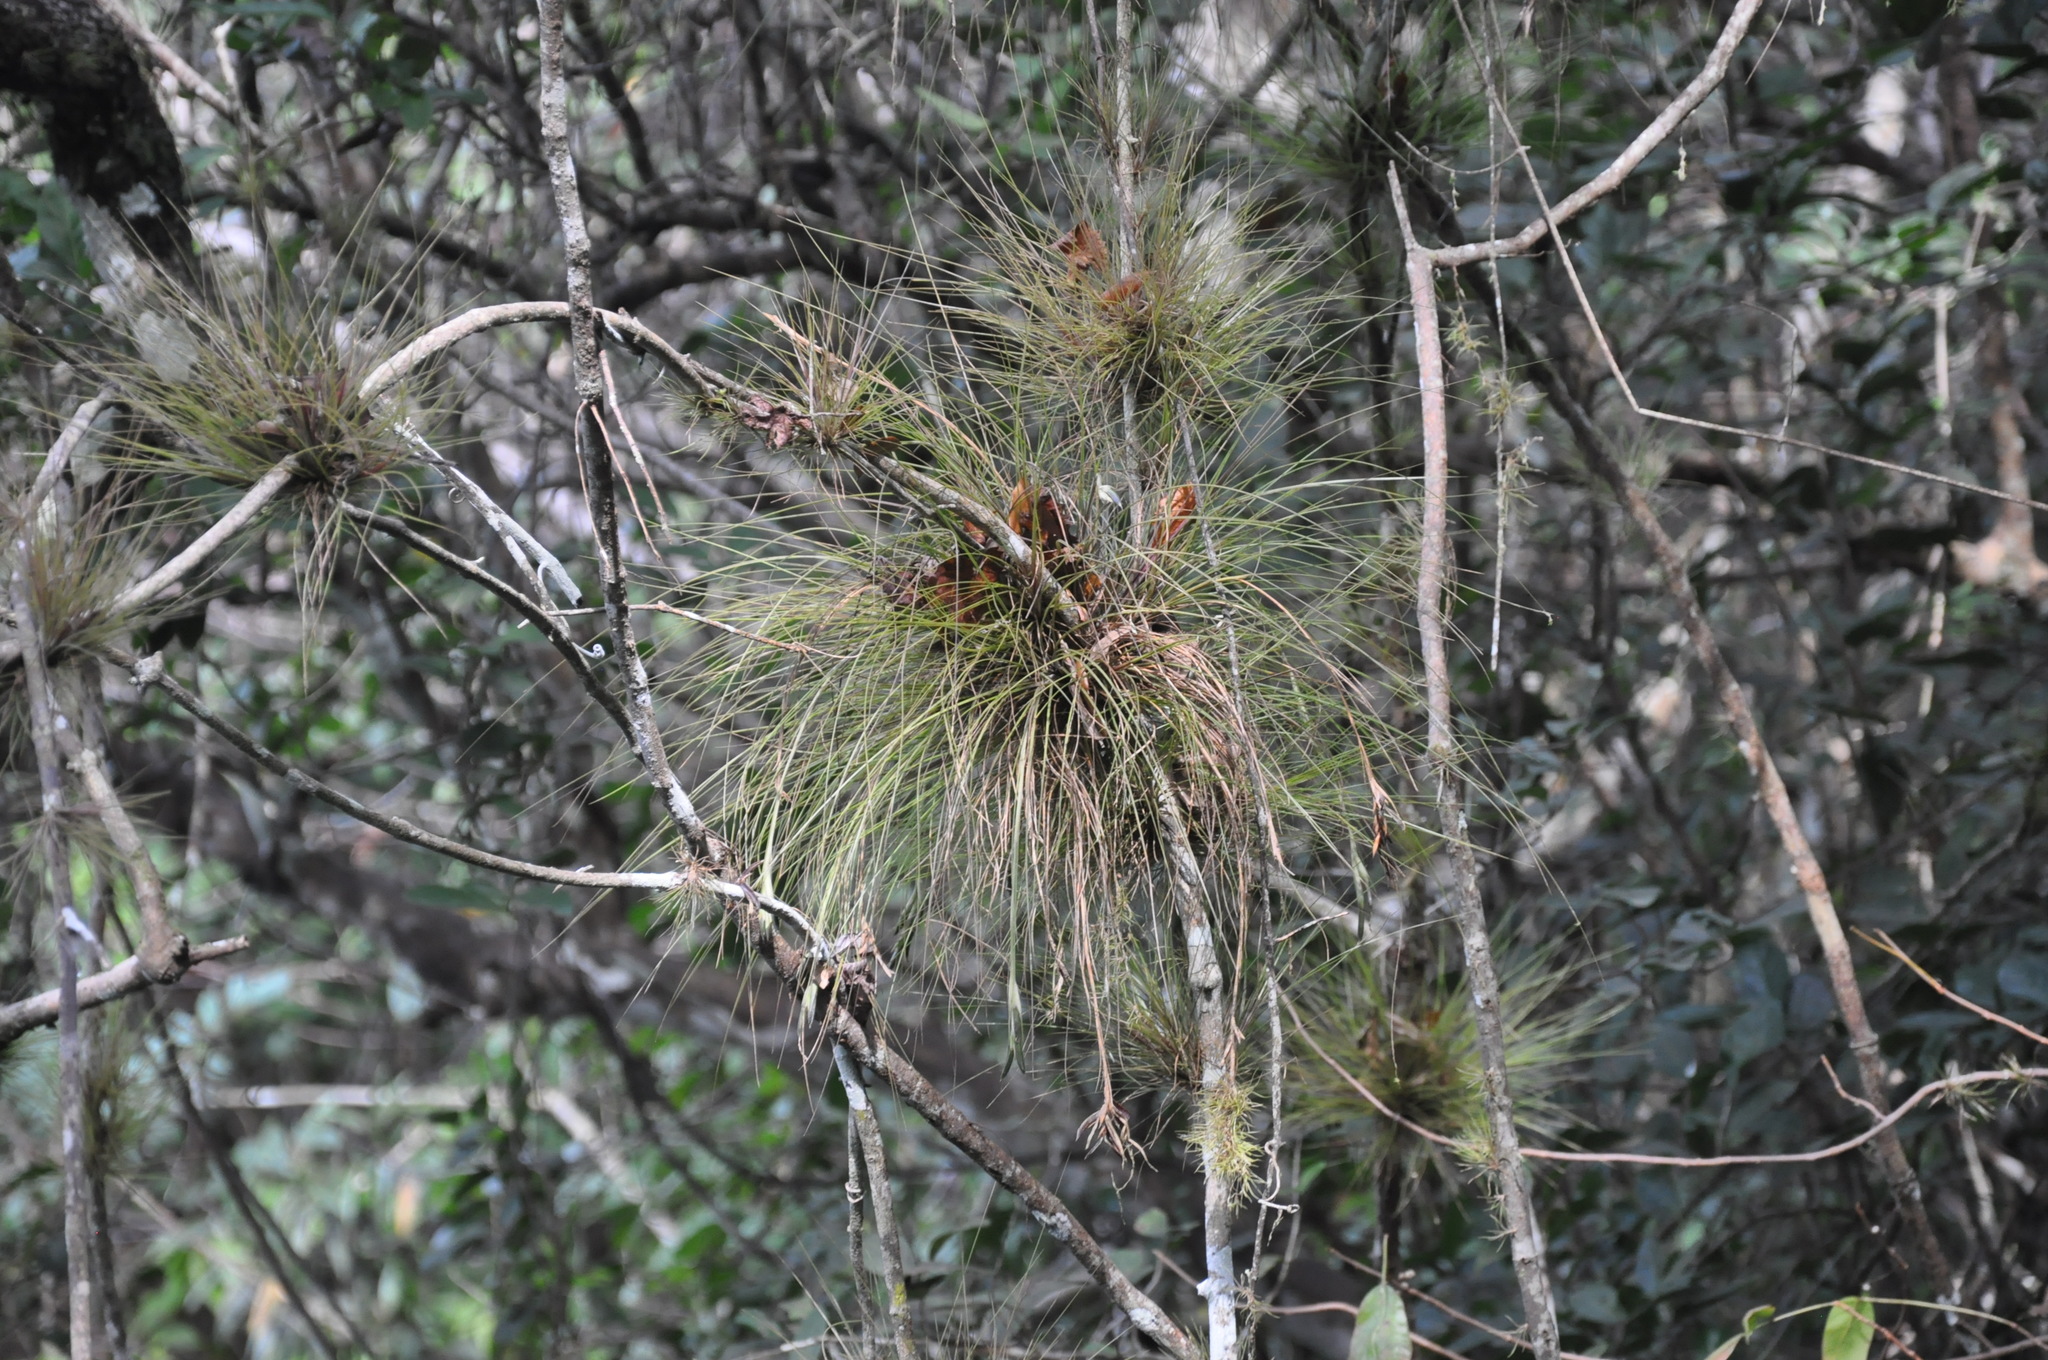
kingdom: Plantae
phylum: Tracheophyta
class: Liliopsida
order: Poales
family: Bromeliaceae
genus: Tillandsia
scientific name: Tillandsia setacea
